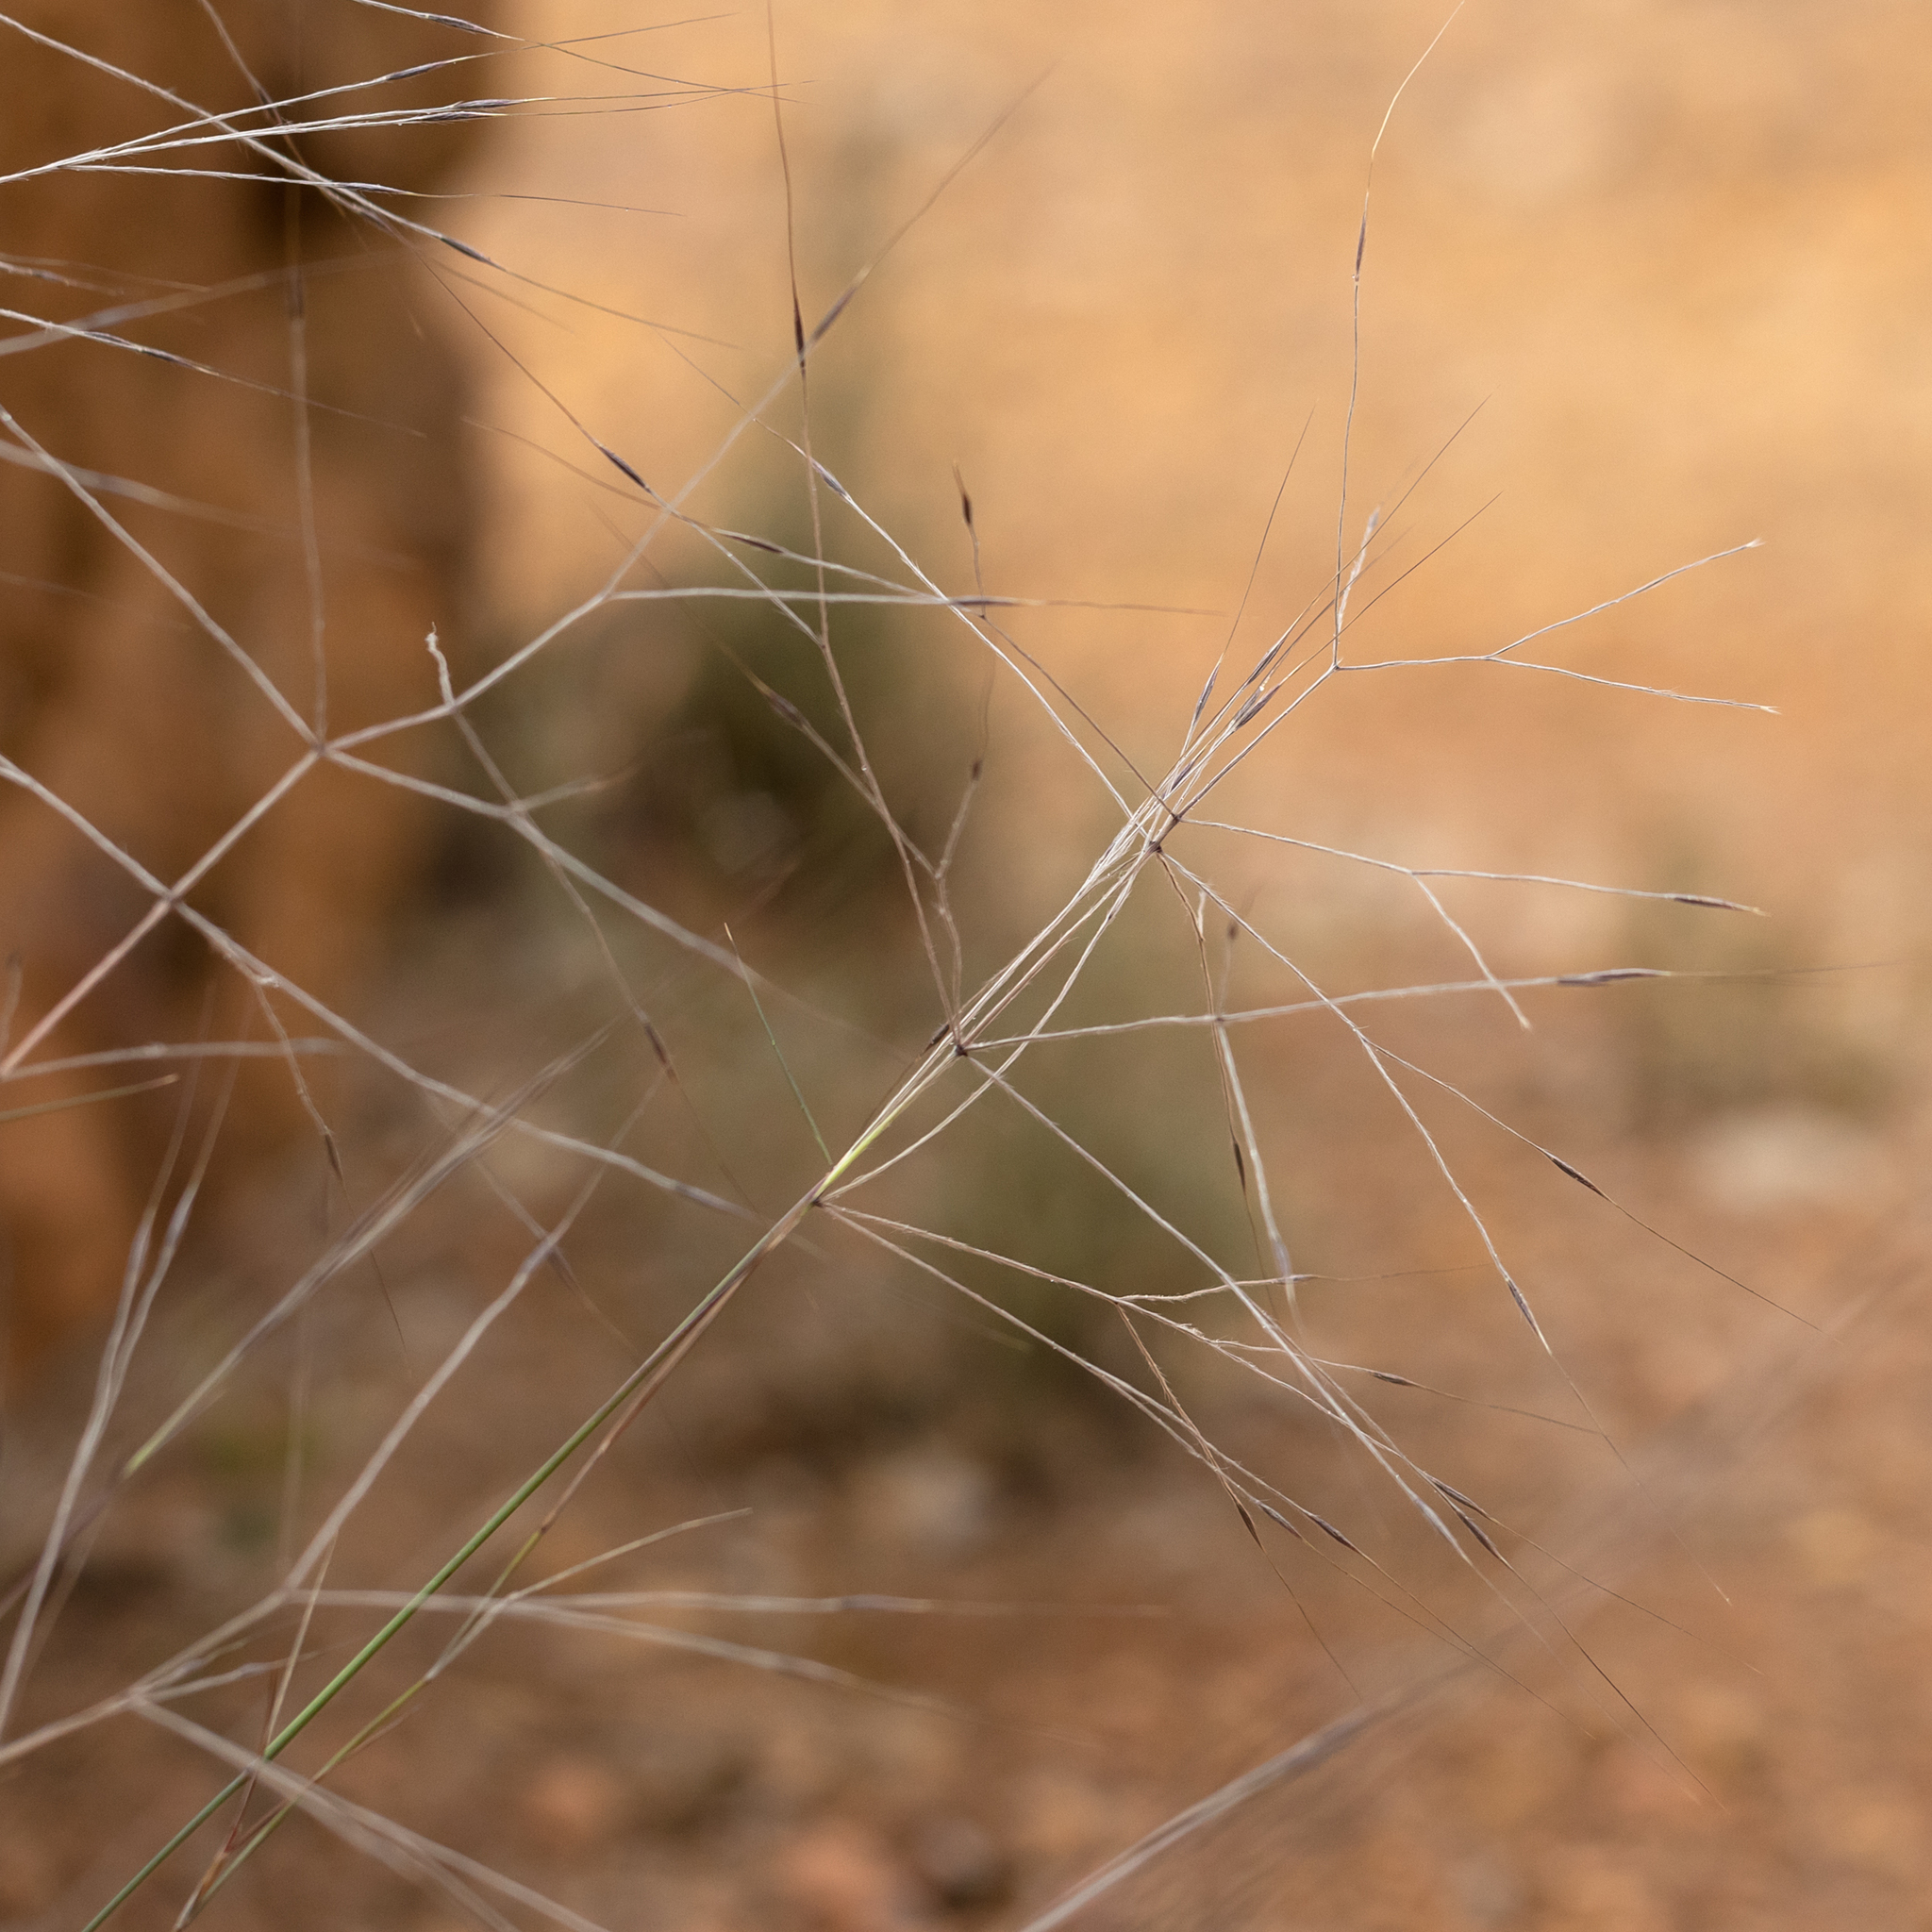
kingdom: Plantae
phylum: Tracheophyta
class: Liliopsida
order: Poales
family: Poaceae
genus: Austrostipa
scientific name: Austrostipa elegantissima
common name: Feather spear grass
